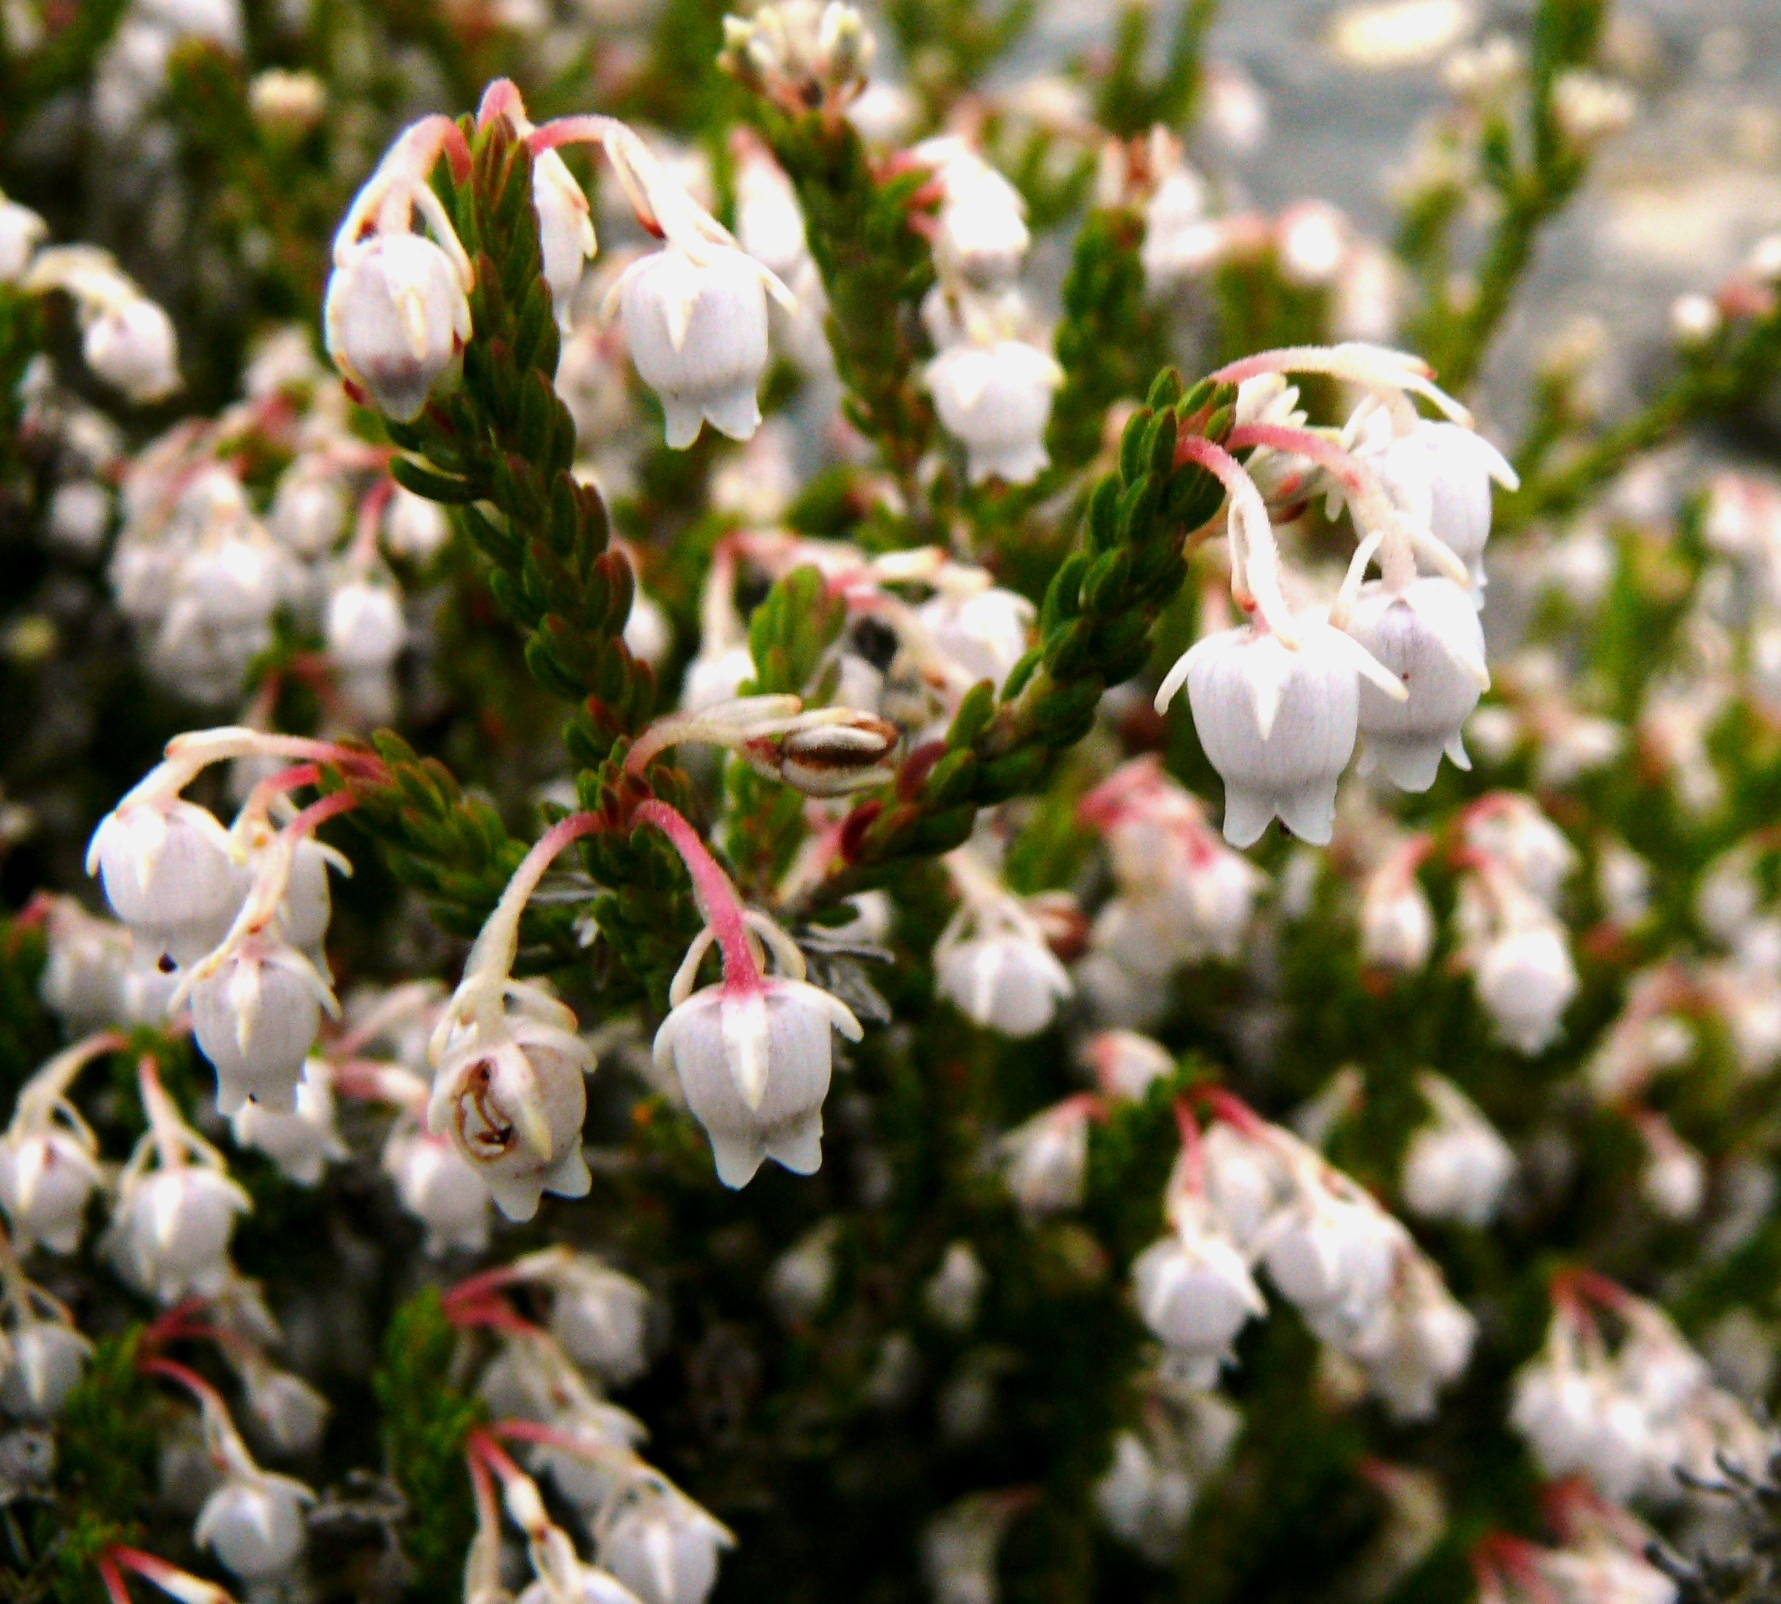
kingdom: Plantae
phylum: Tracheophyta
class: Magnoliopsida
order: Ericales
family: Ericaceae
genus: Erica
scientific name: Erica spectabilis
